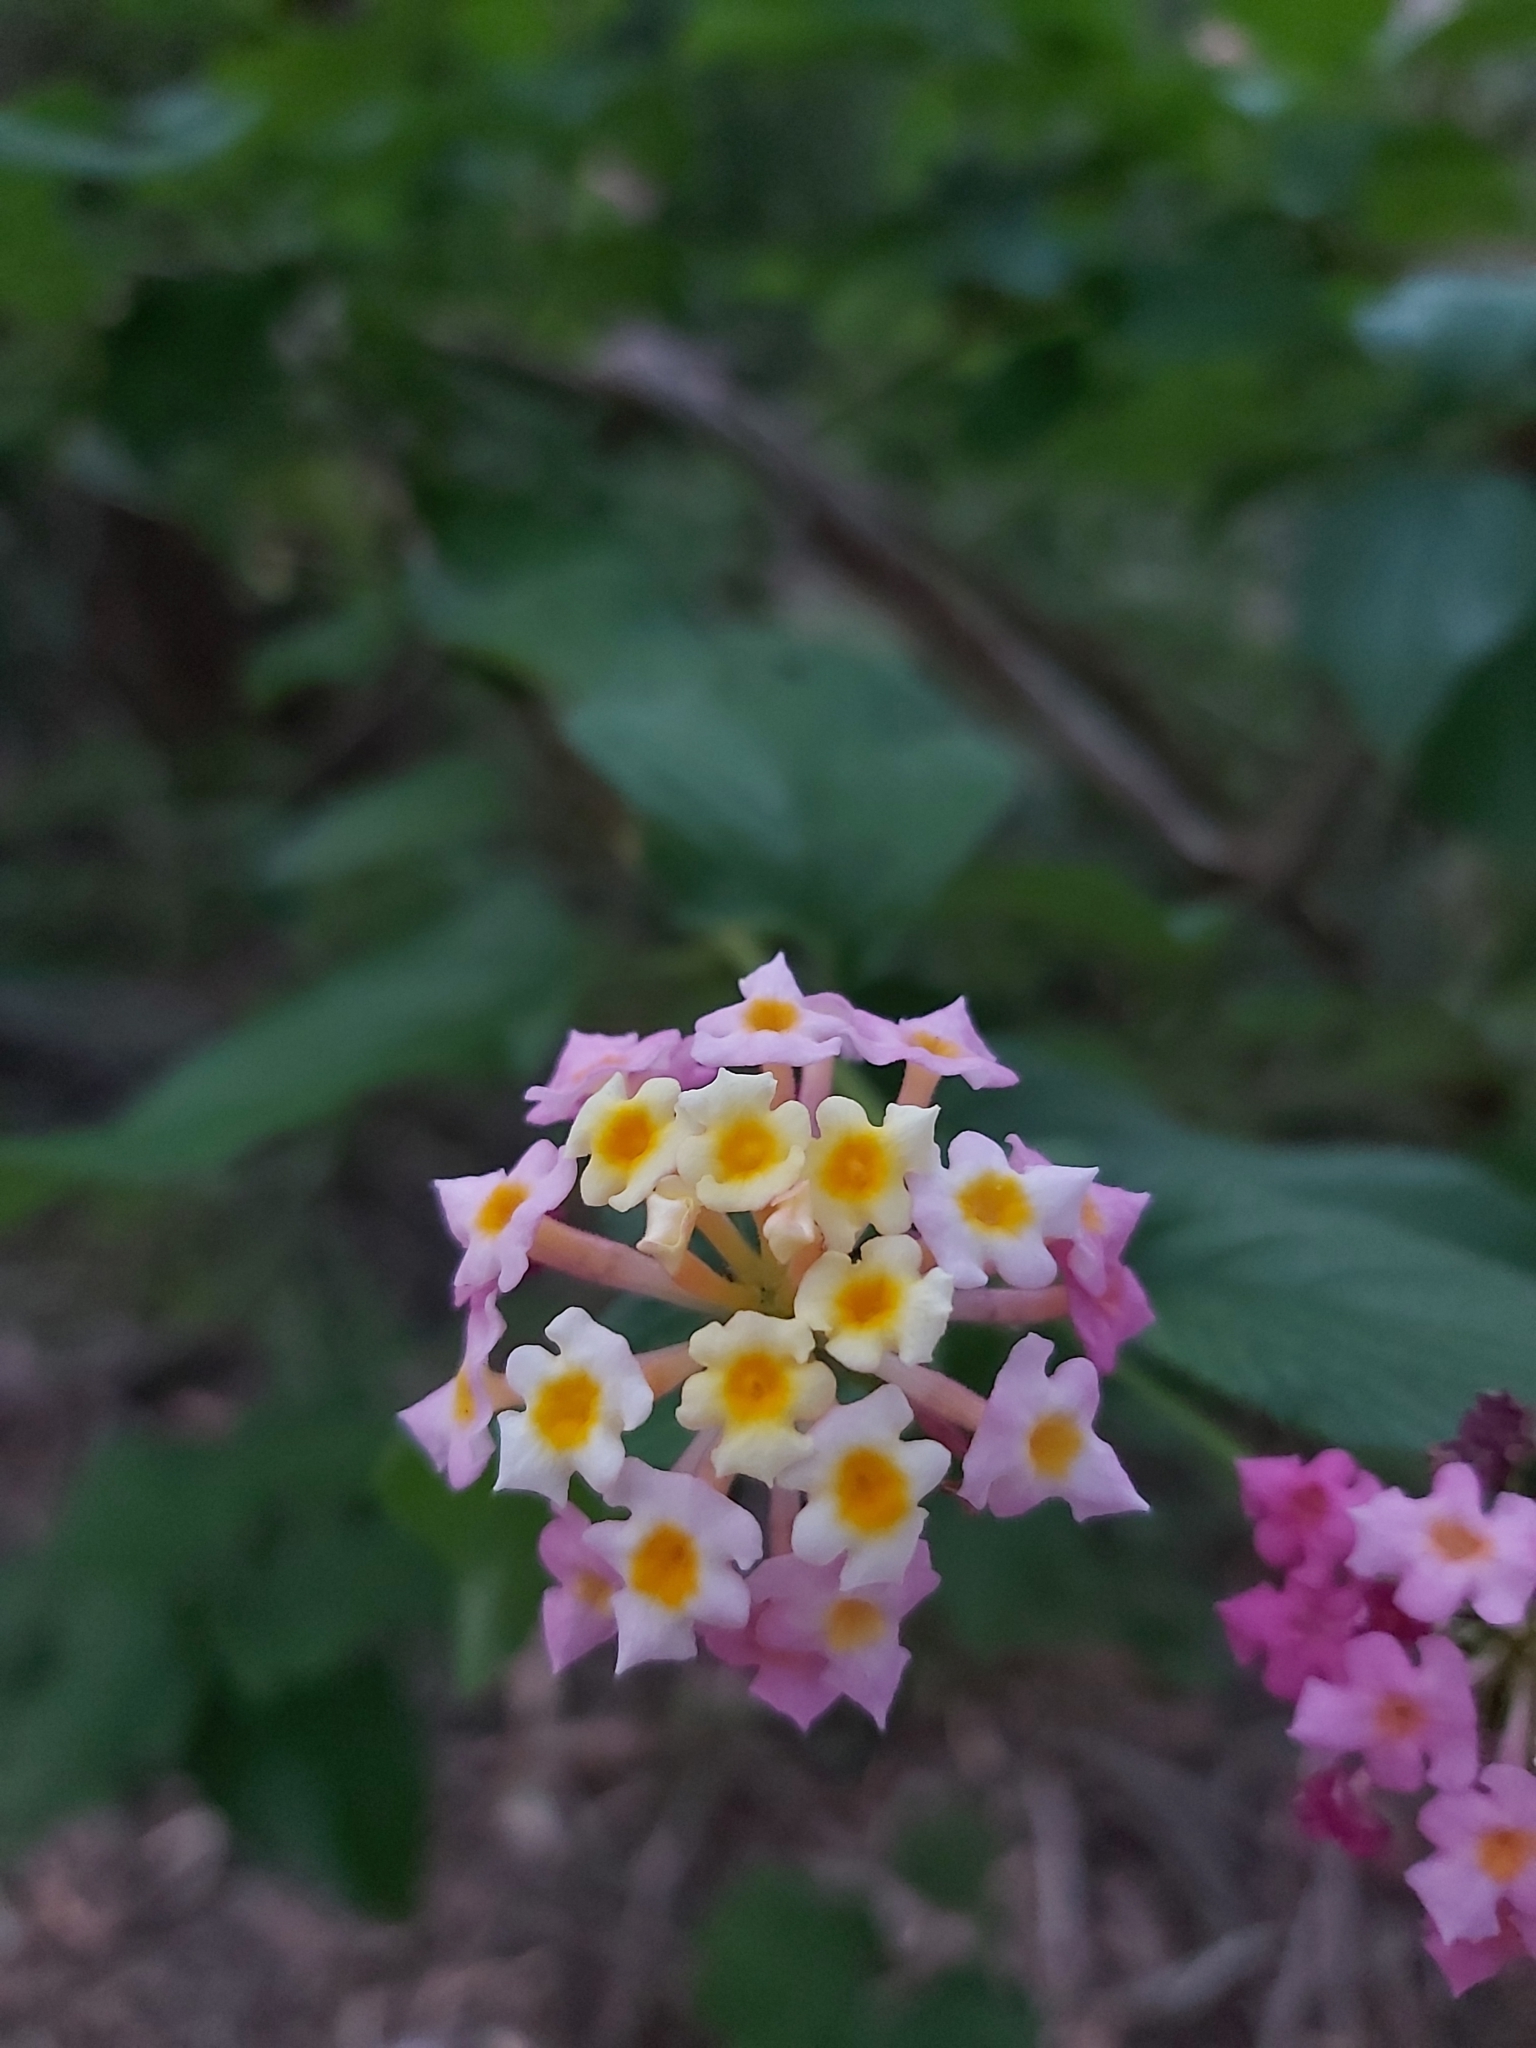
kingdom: Plantae
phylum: Tracheophyta
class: Magnoliopsida
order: Lamiales
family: Verbenaceae
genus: Lantana
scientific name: Lantana camara
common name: Lantana
